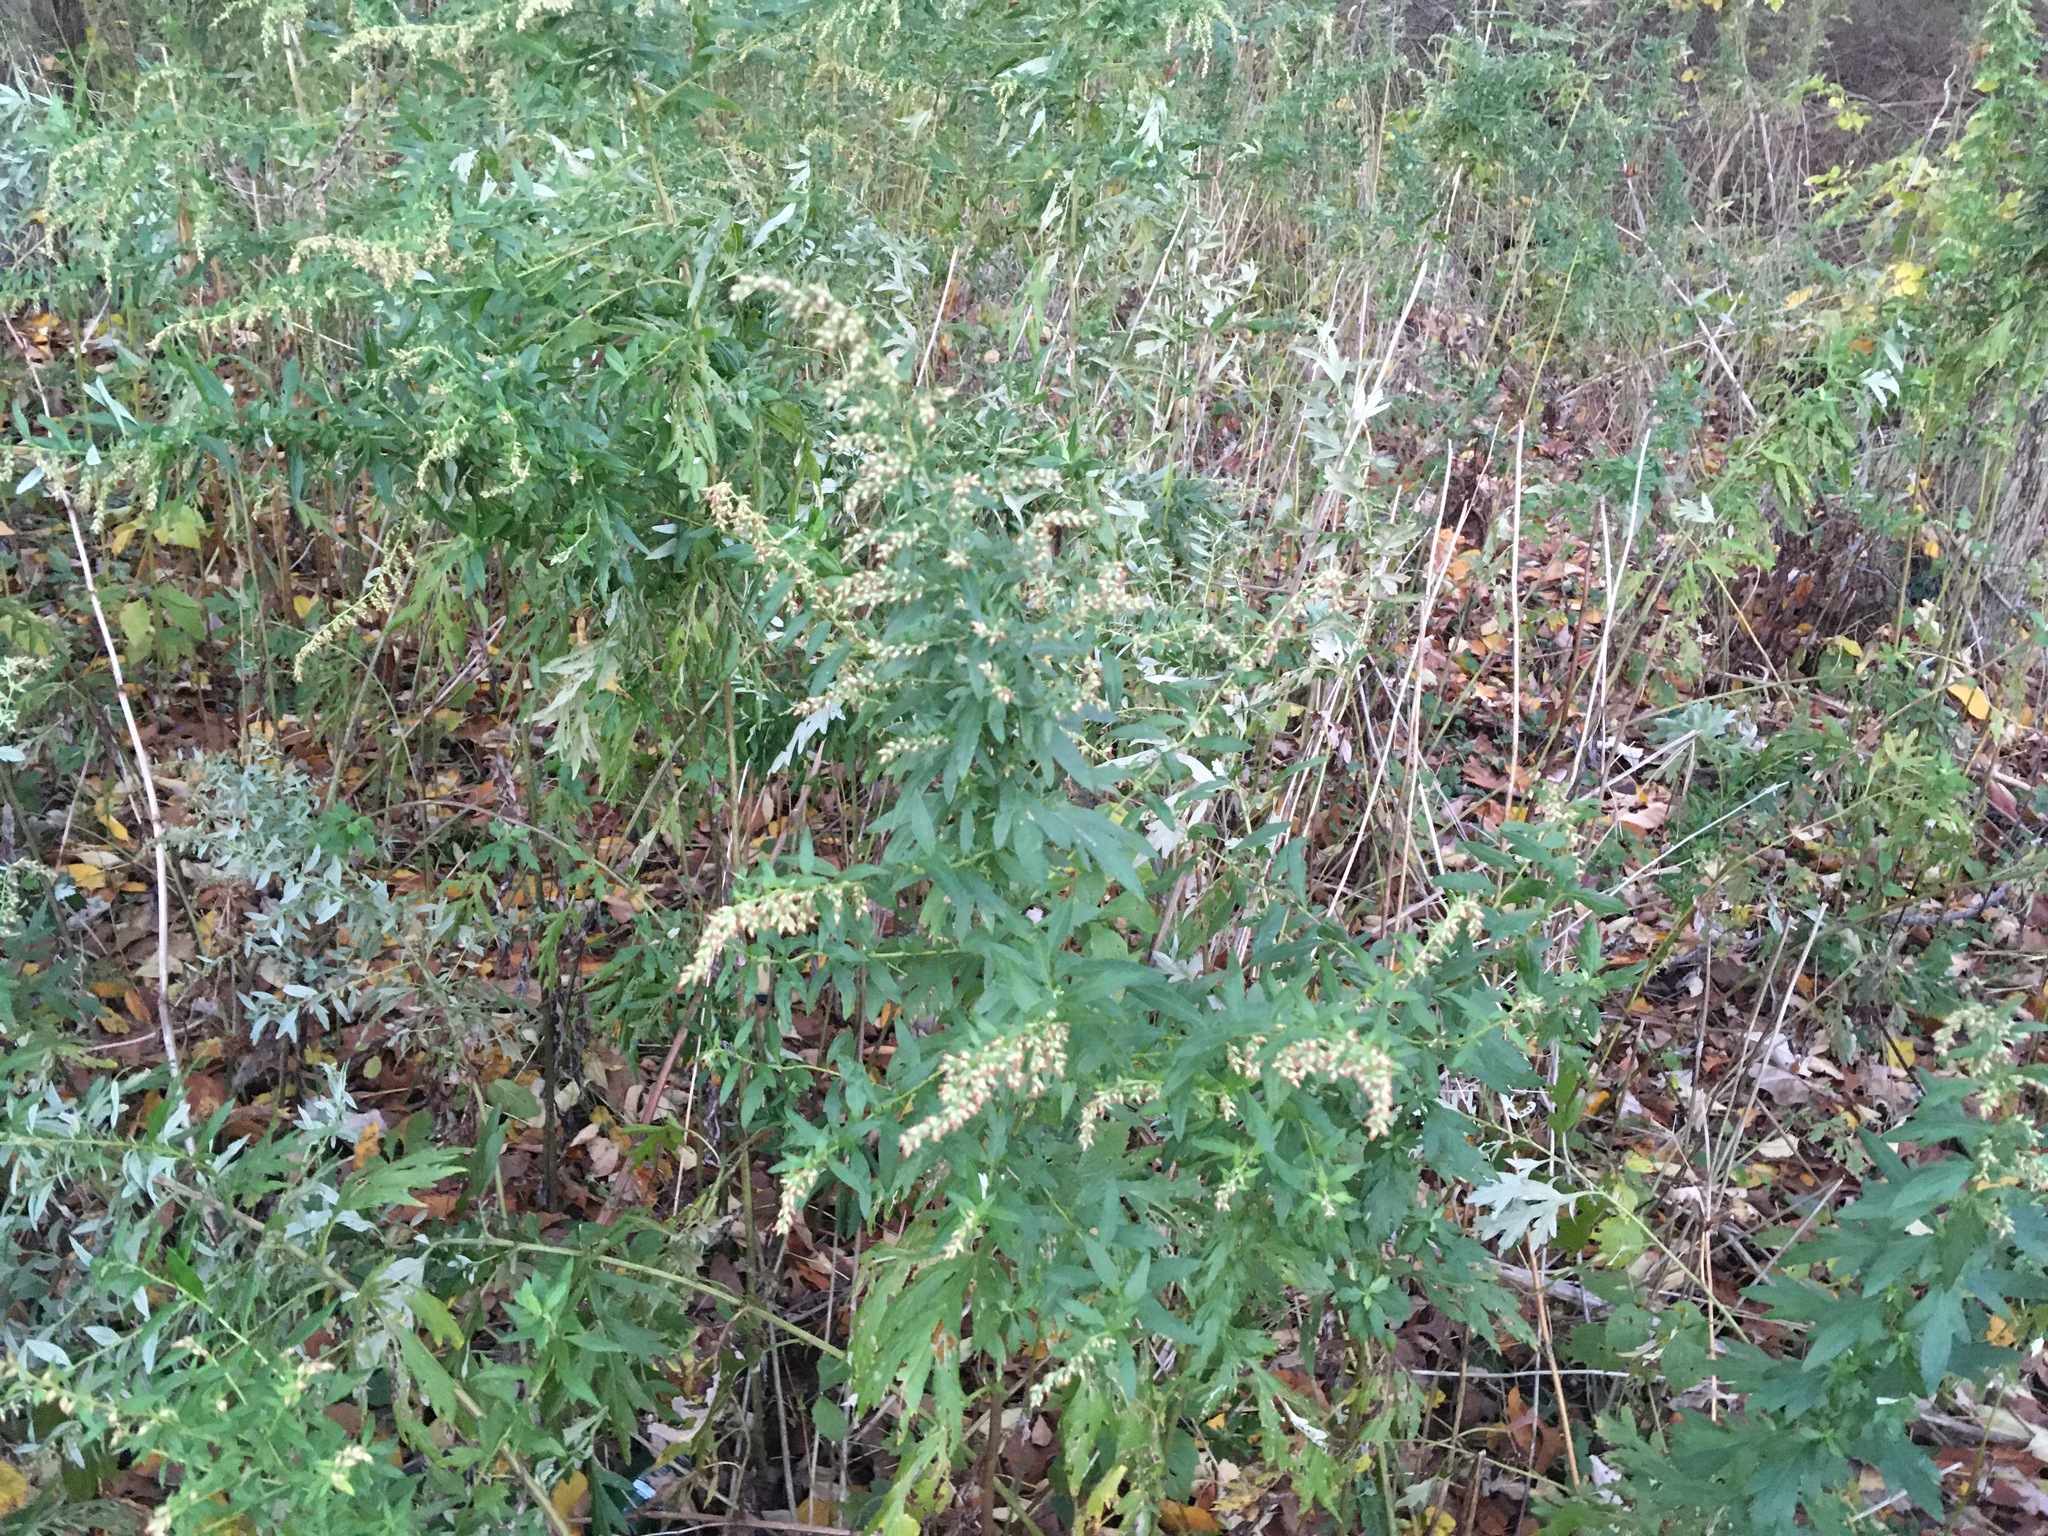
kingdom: Plantae
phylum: Tracheophyta
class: Magnoliopsida
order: Asterales
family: Asteraceae
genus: Artemisia
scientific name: Artemisia vulgaris
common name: Mugwort
